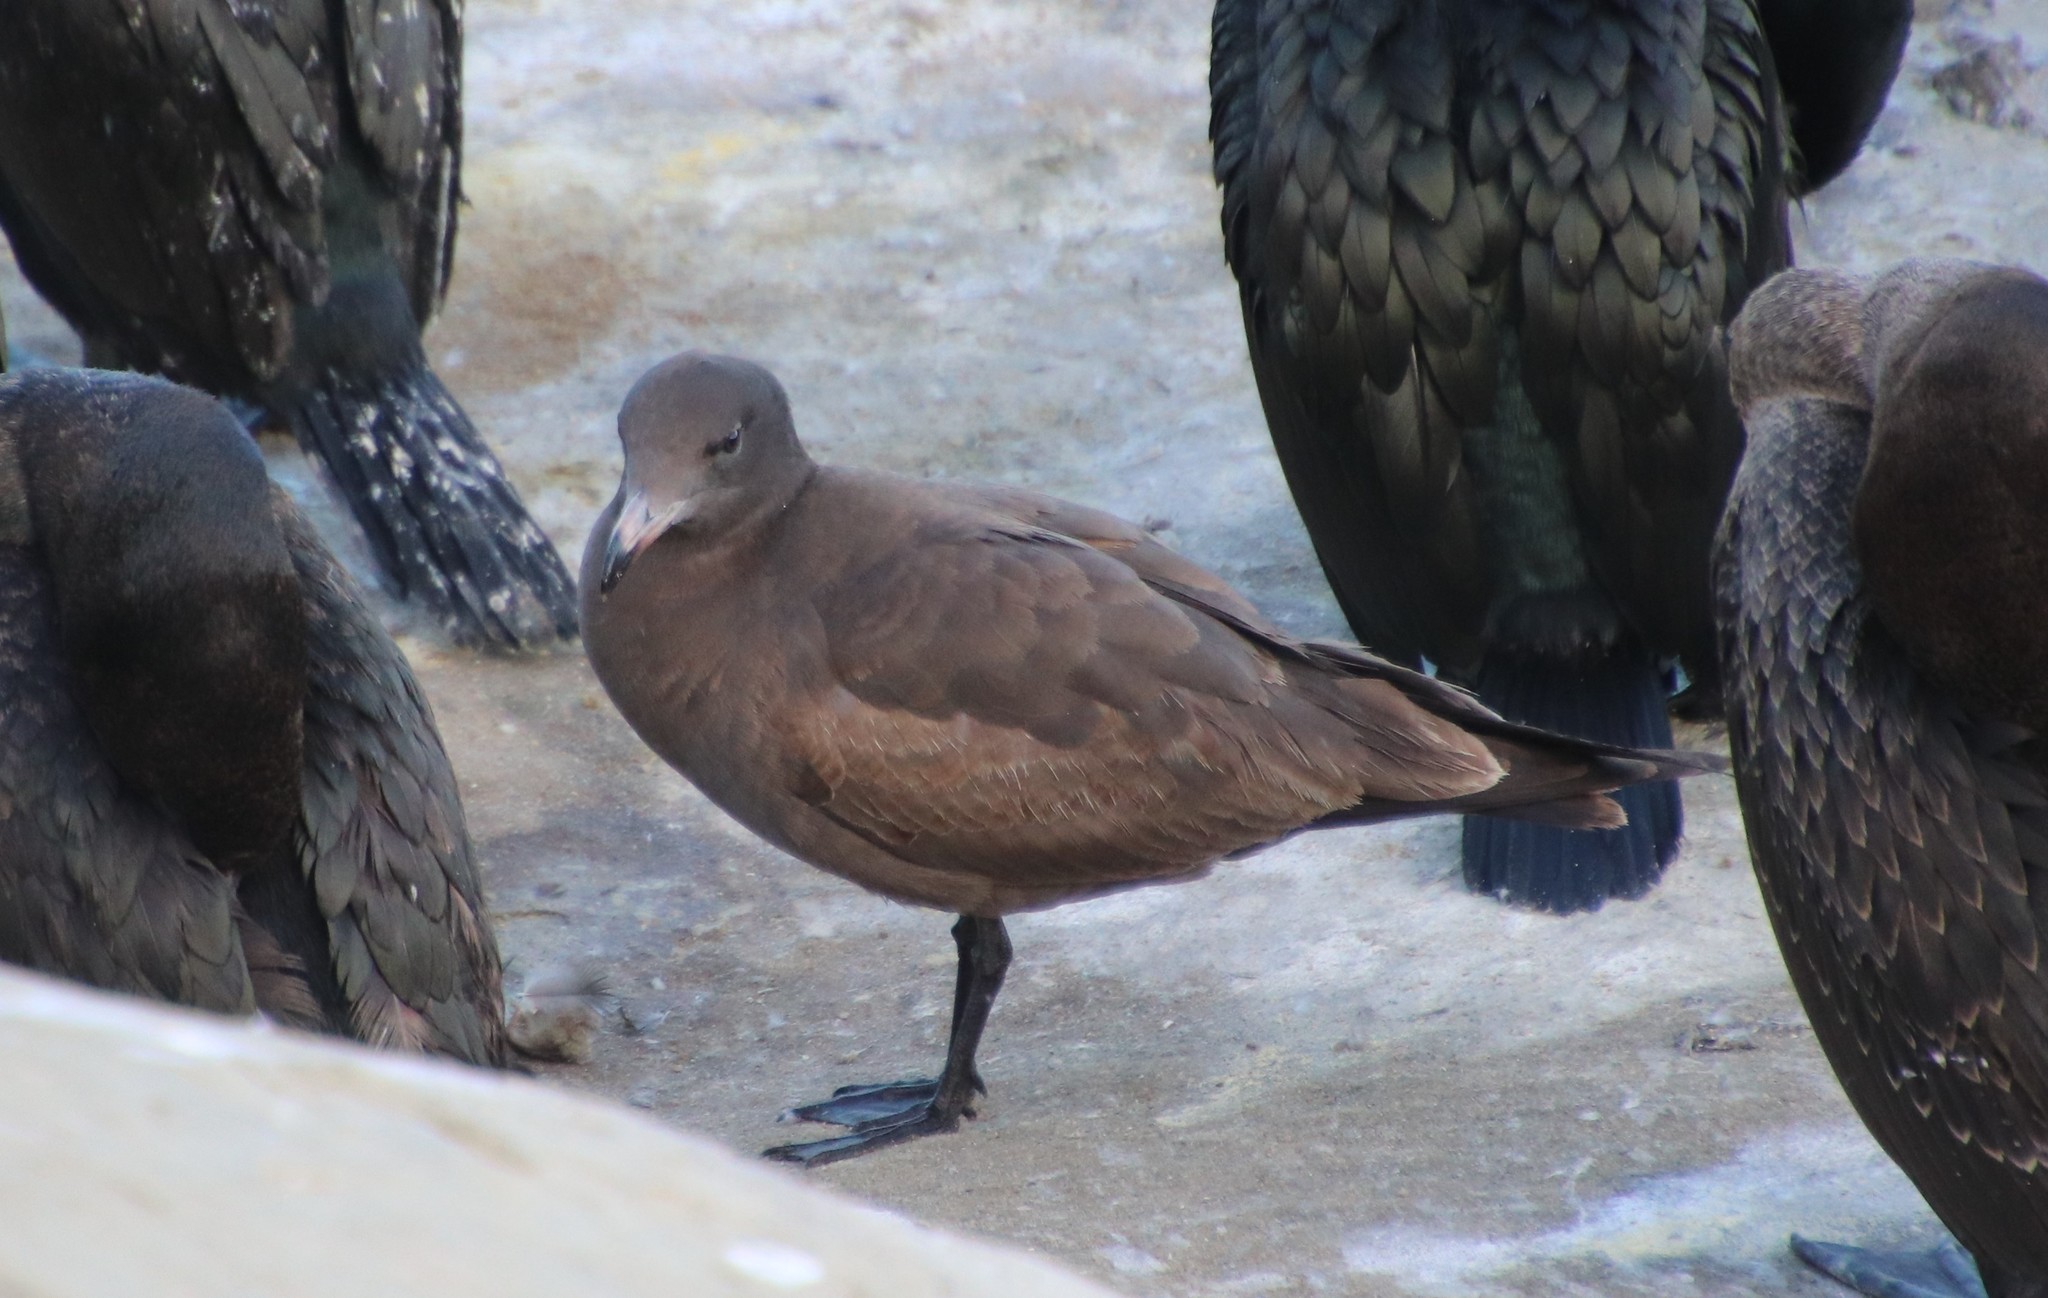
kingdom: Animalia
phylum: Chordata
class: Aves
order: Charadriiformes
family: Laridae
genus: Larus
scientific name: Larus heermanni
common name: Heermann's gull
